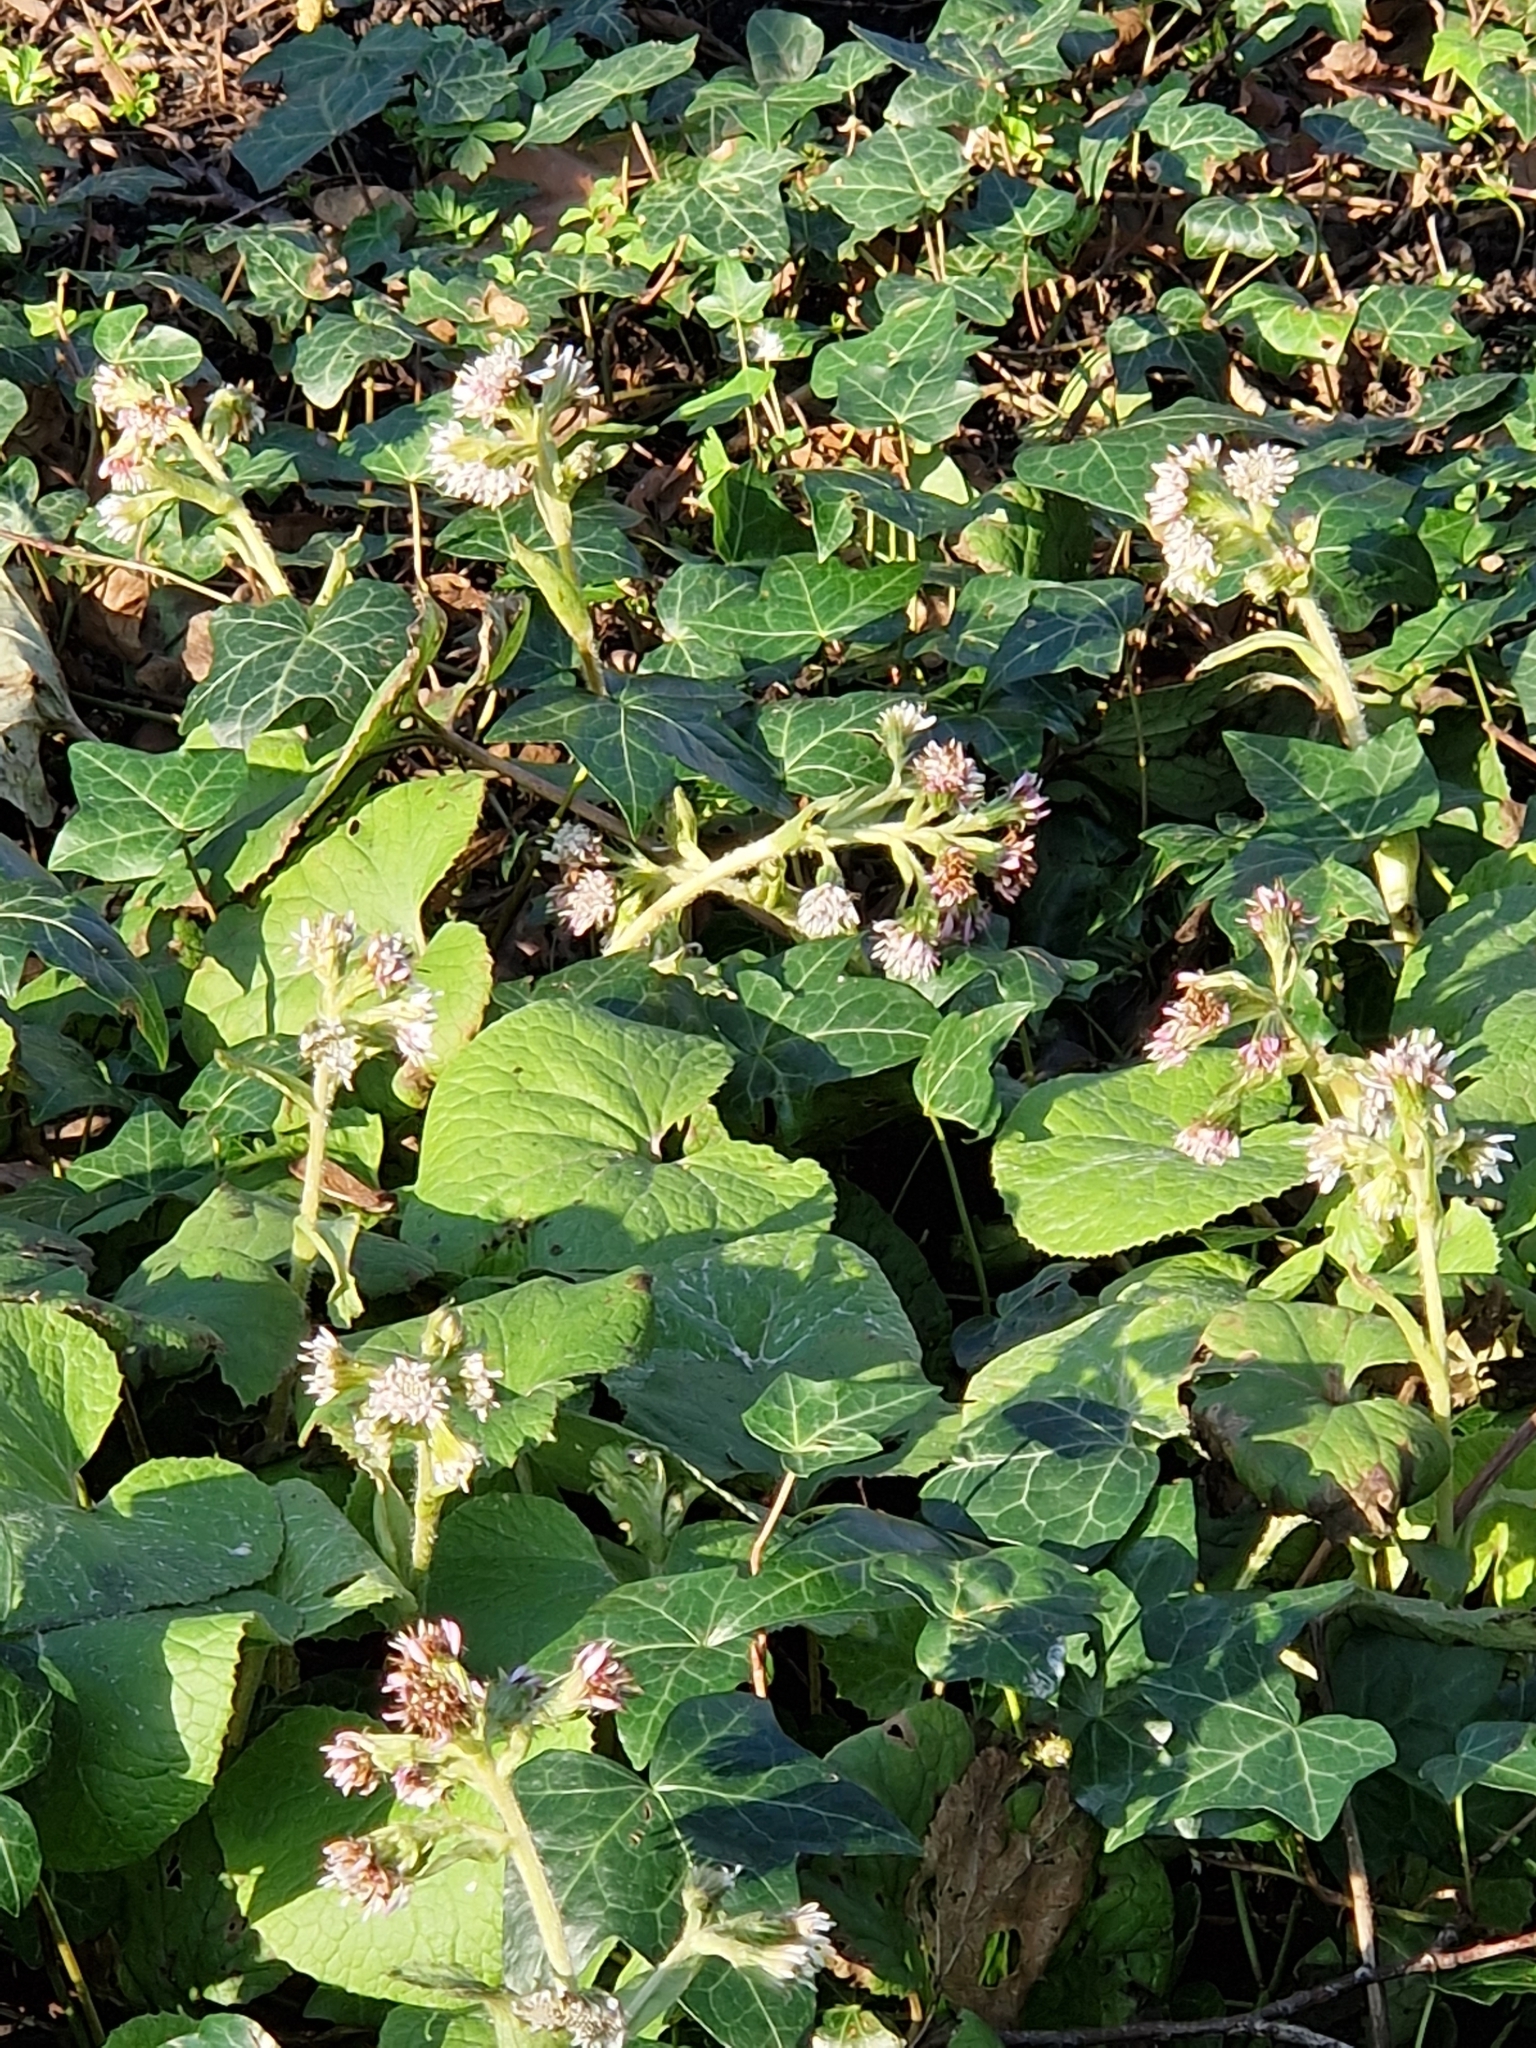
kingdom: Plantae
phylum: Tracheophyta
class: Magnoliopsida
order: Asterales
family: Asteraceae
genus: Petasites
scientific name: Petasites pyrenaicus
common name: Winter heliotrope
